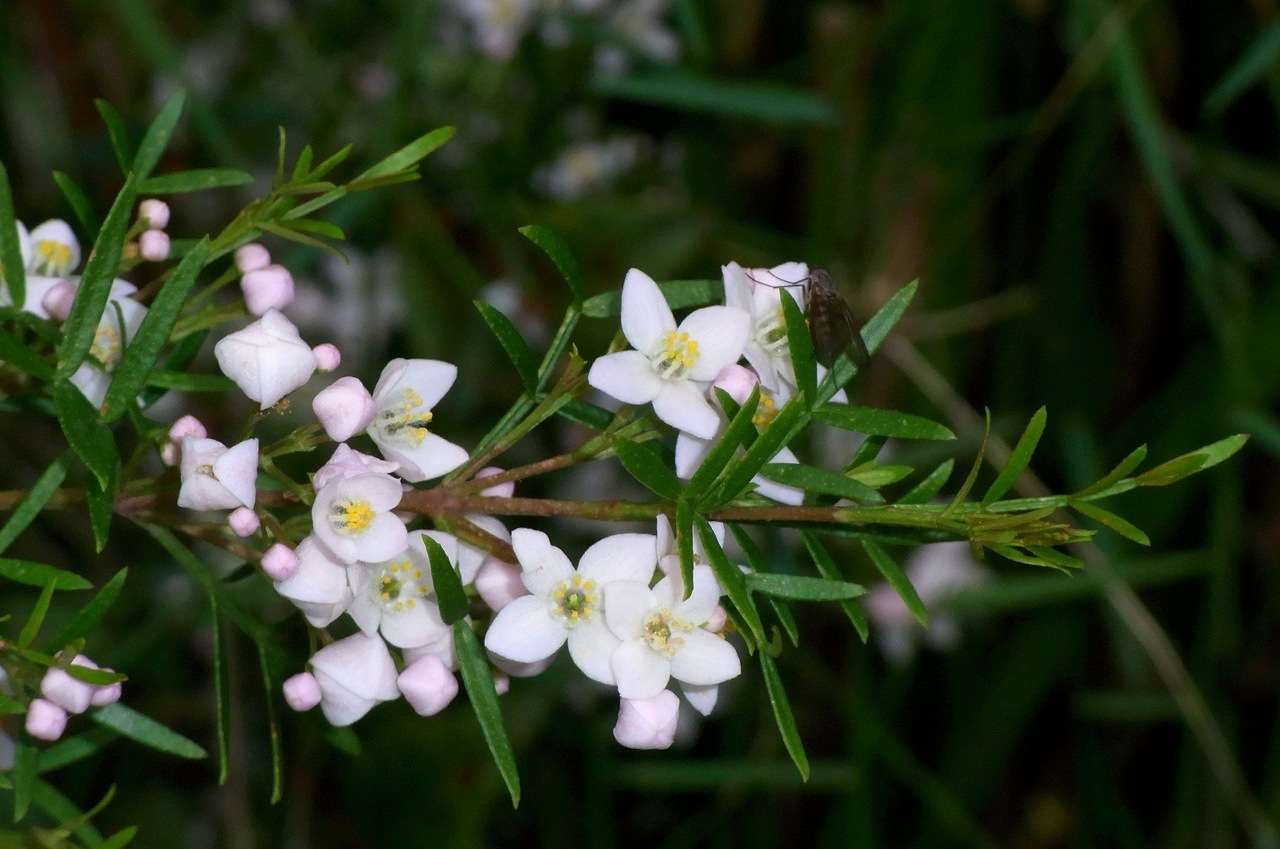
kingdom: Plantae
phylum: Tracheophyta
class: Magnoliopsida
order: Sapindales
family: Rutaceae
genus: Boronia
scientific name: Boronia muelleri
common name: Forest boronia
